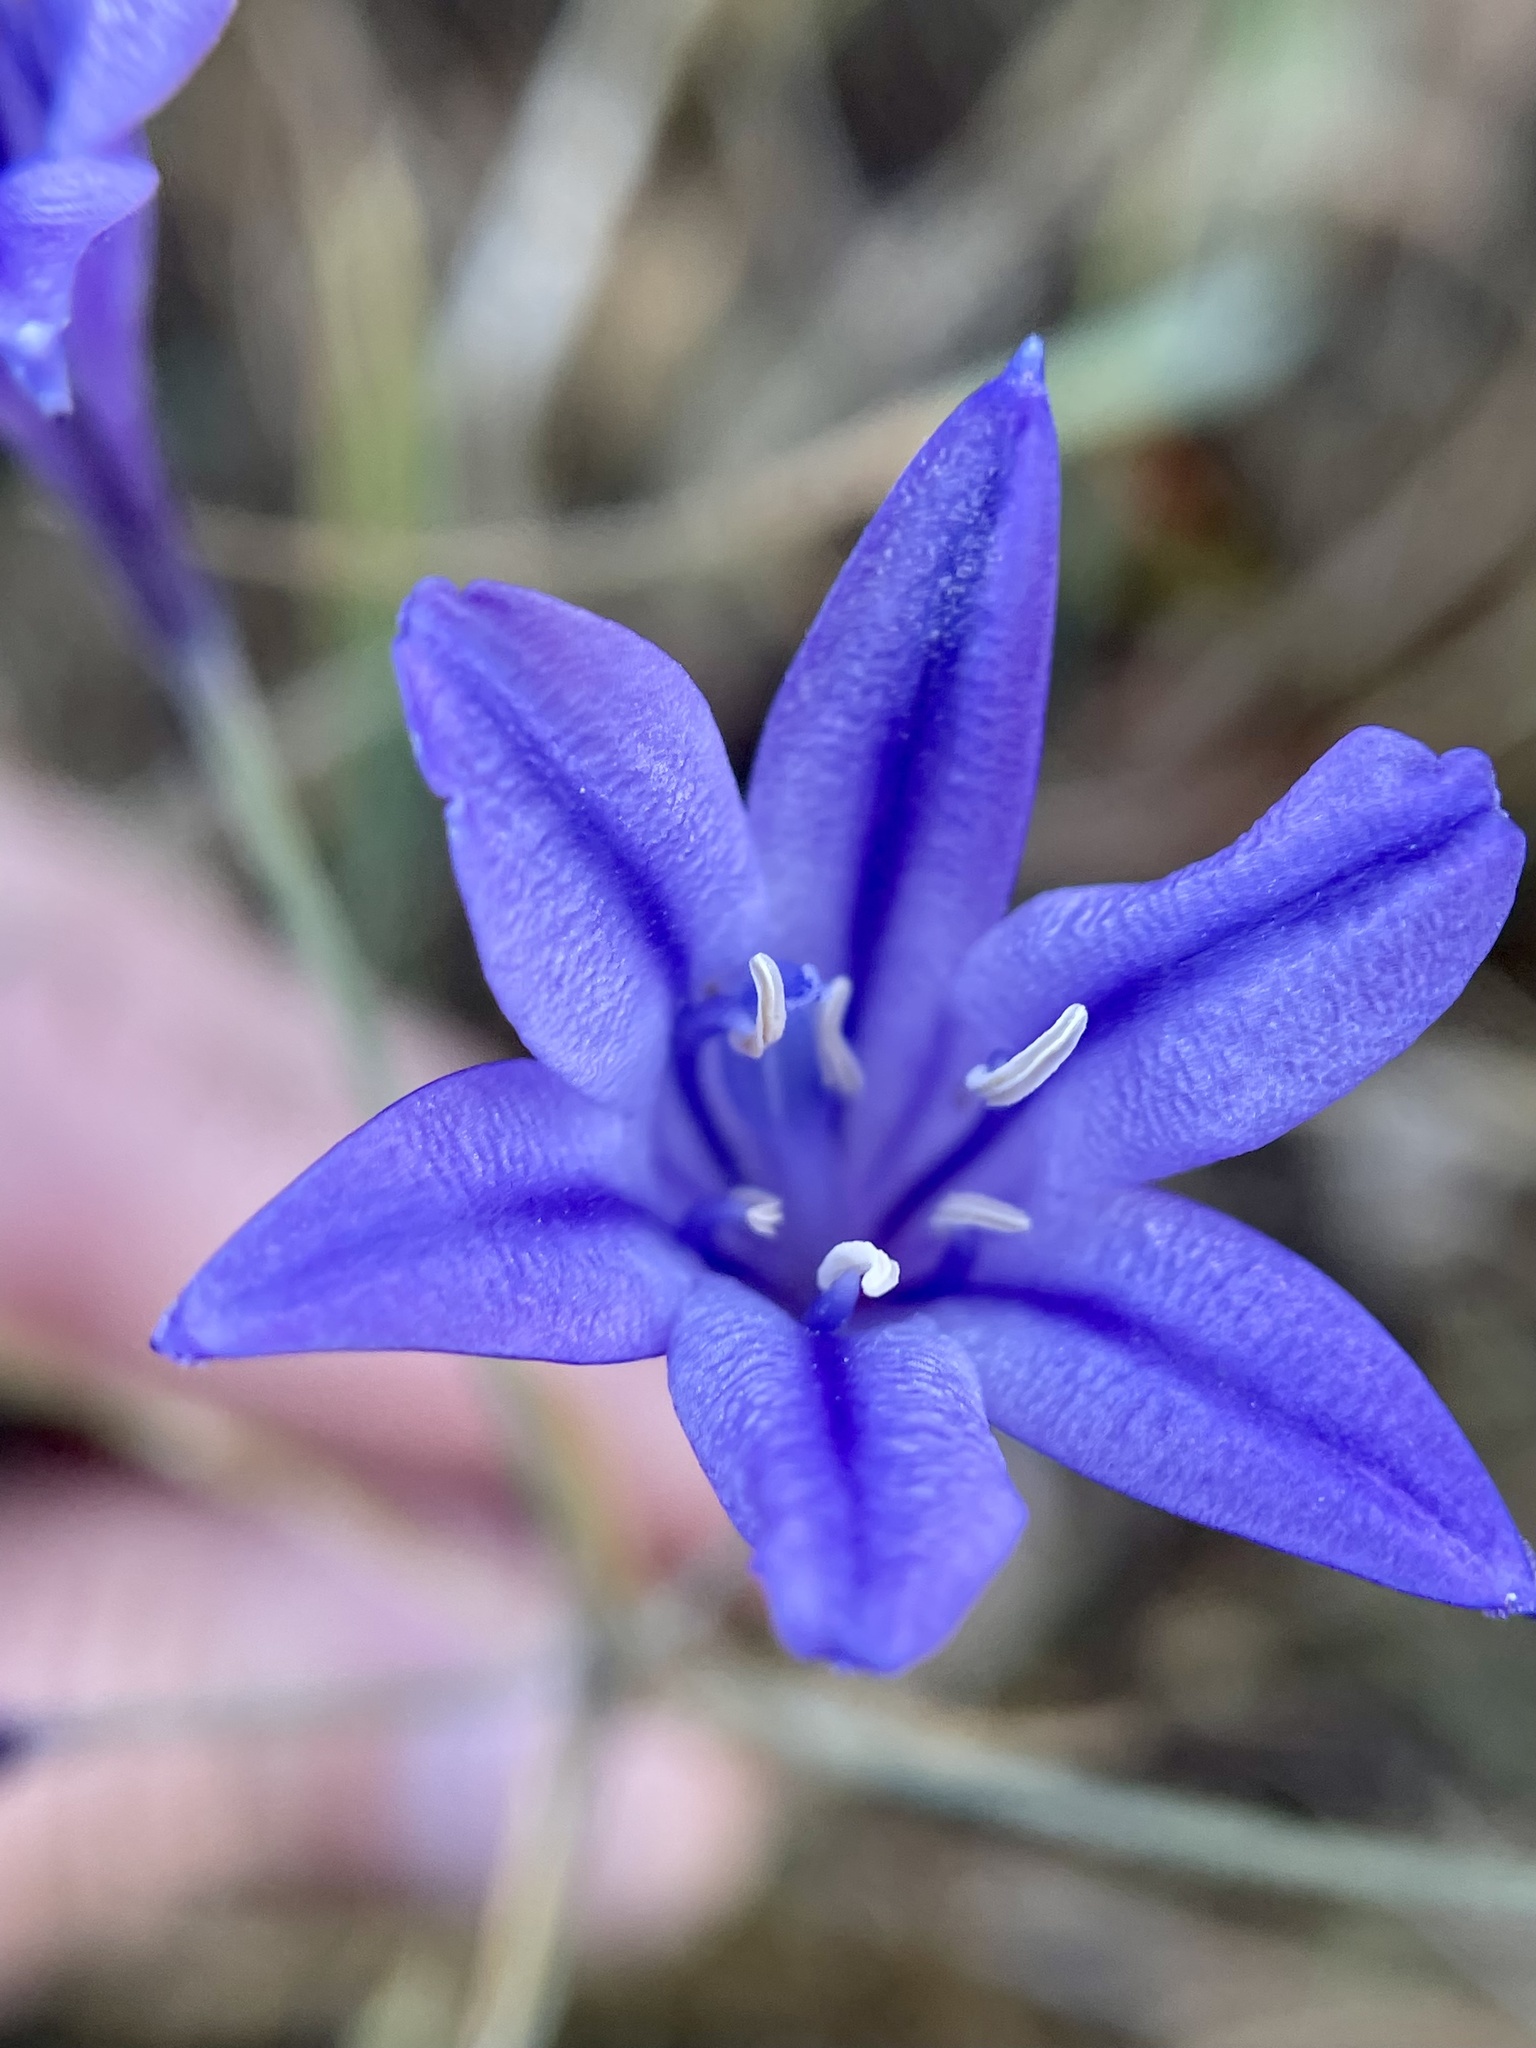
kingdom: Plantae
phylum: Tracheophyta
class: Liliopsida
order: Asparagales
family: Asparagaceae
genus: Triteleia
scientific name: Triteleia laxa
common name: Triplet-lily
